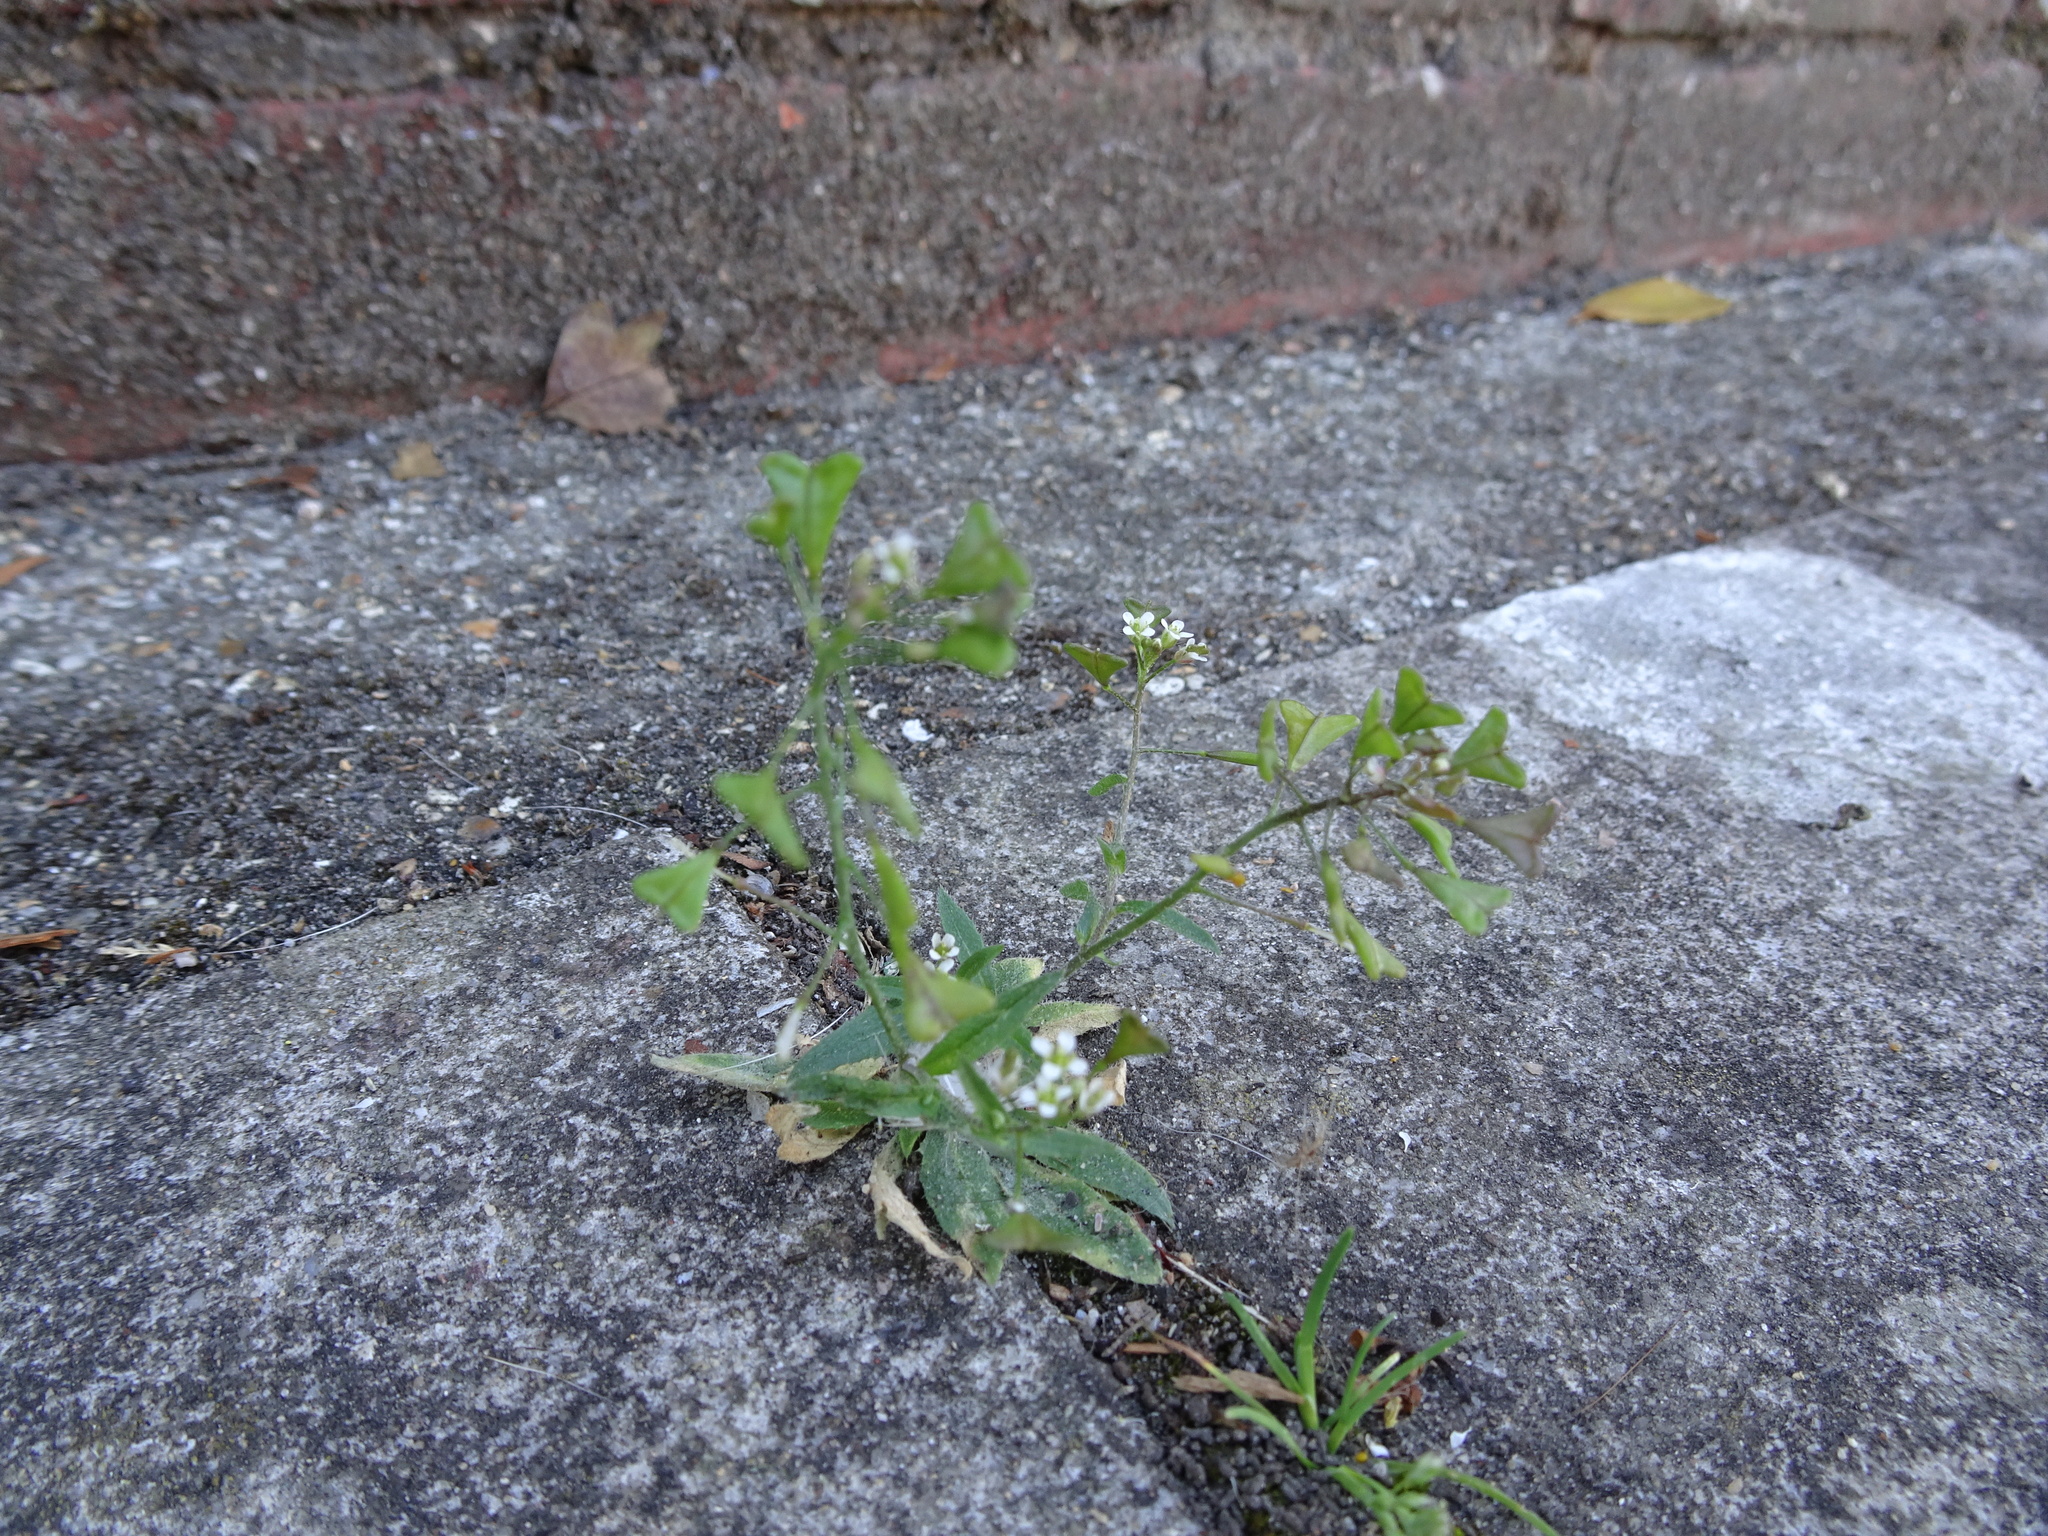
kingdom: Plantae
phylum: Tracheophyta
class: Magnoliopsida
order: Brassicales
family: Brassicaceae
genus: Capsella
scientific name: Capsella bursa-pastoris
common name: Shepherd's purse
